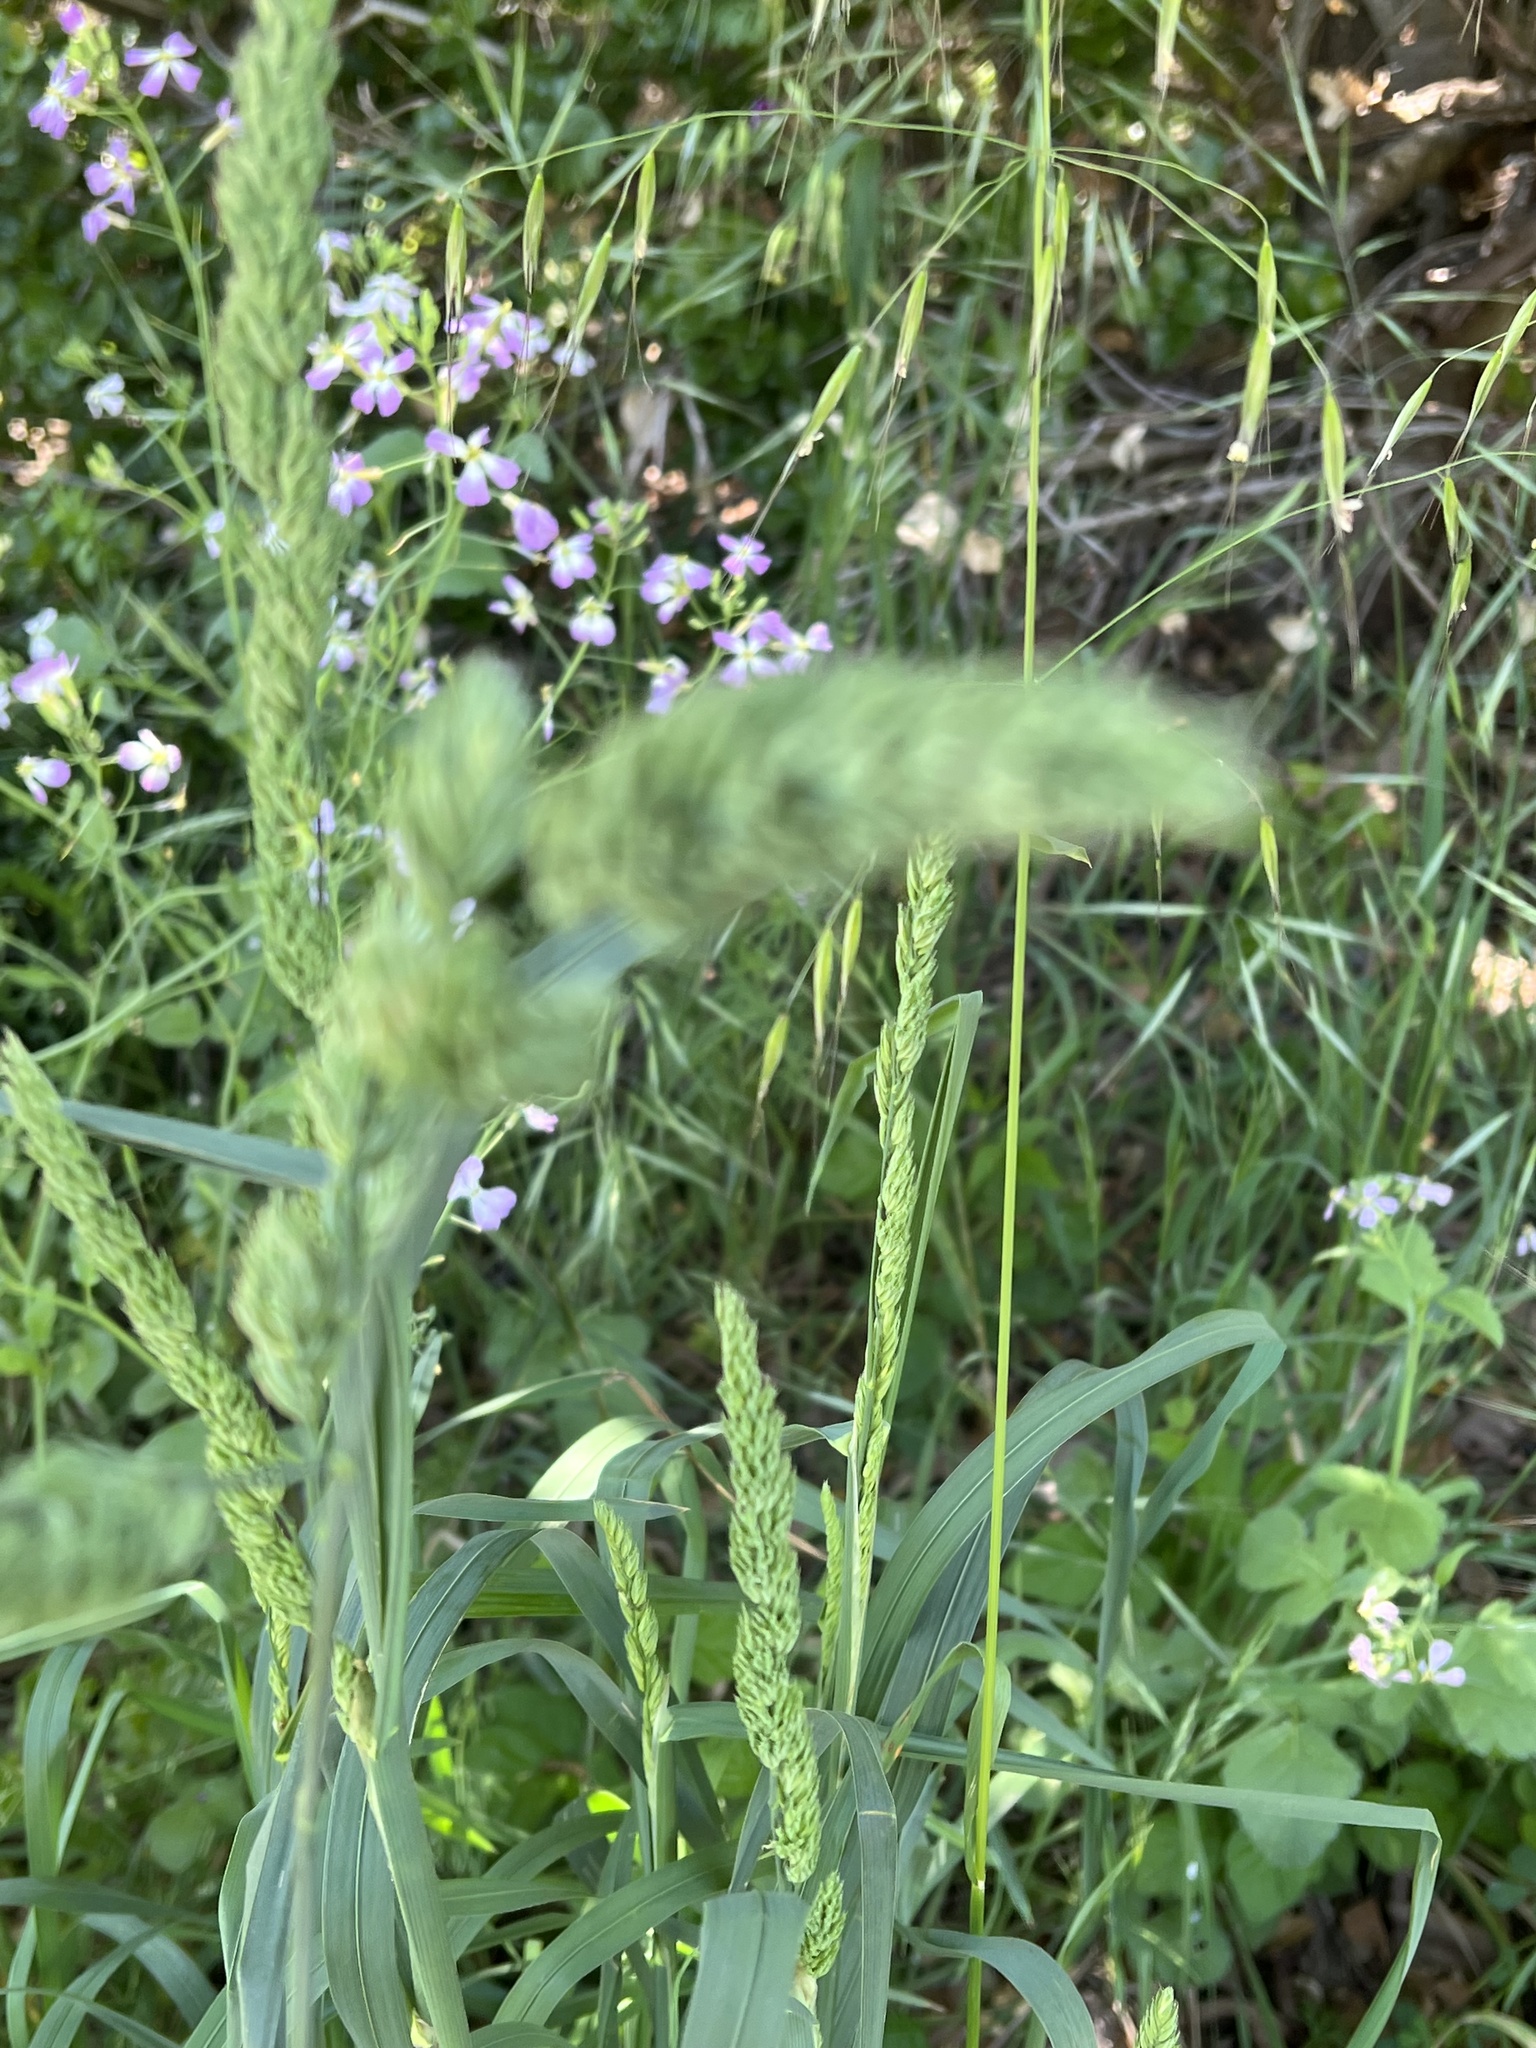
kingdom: Plantae
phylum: Tracheophyta
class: Liliopsida
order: Poales
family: Poaceae
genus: Dactylis
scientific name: Dactylis glomerata
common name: Orchardgrass
